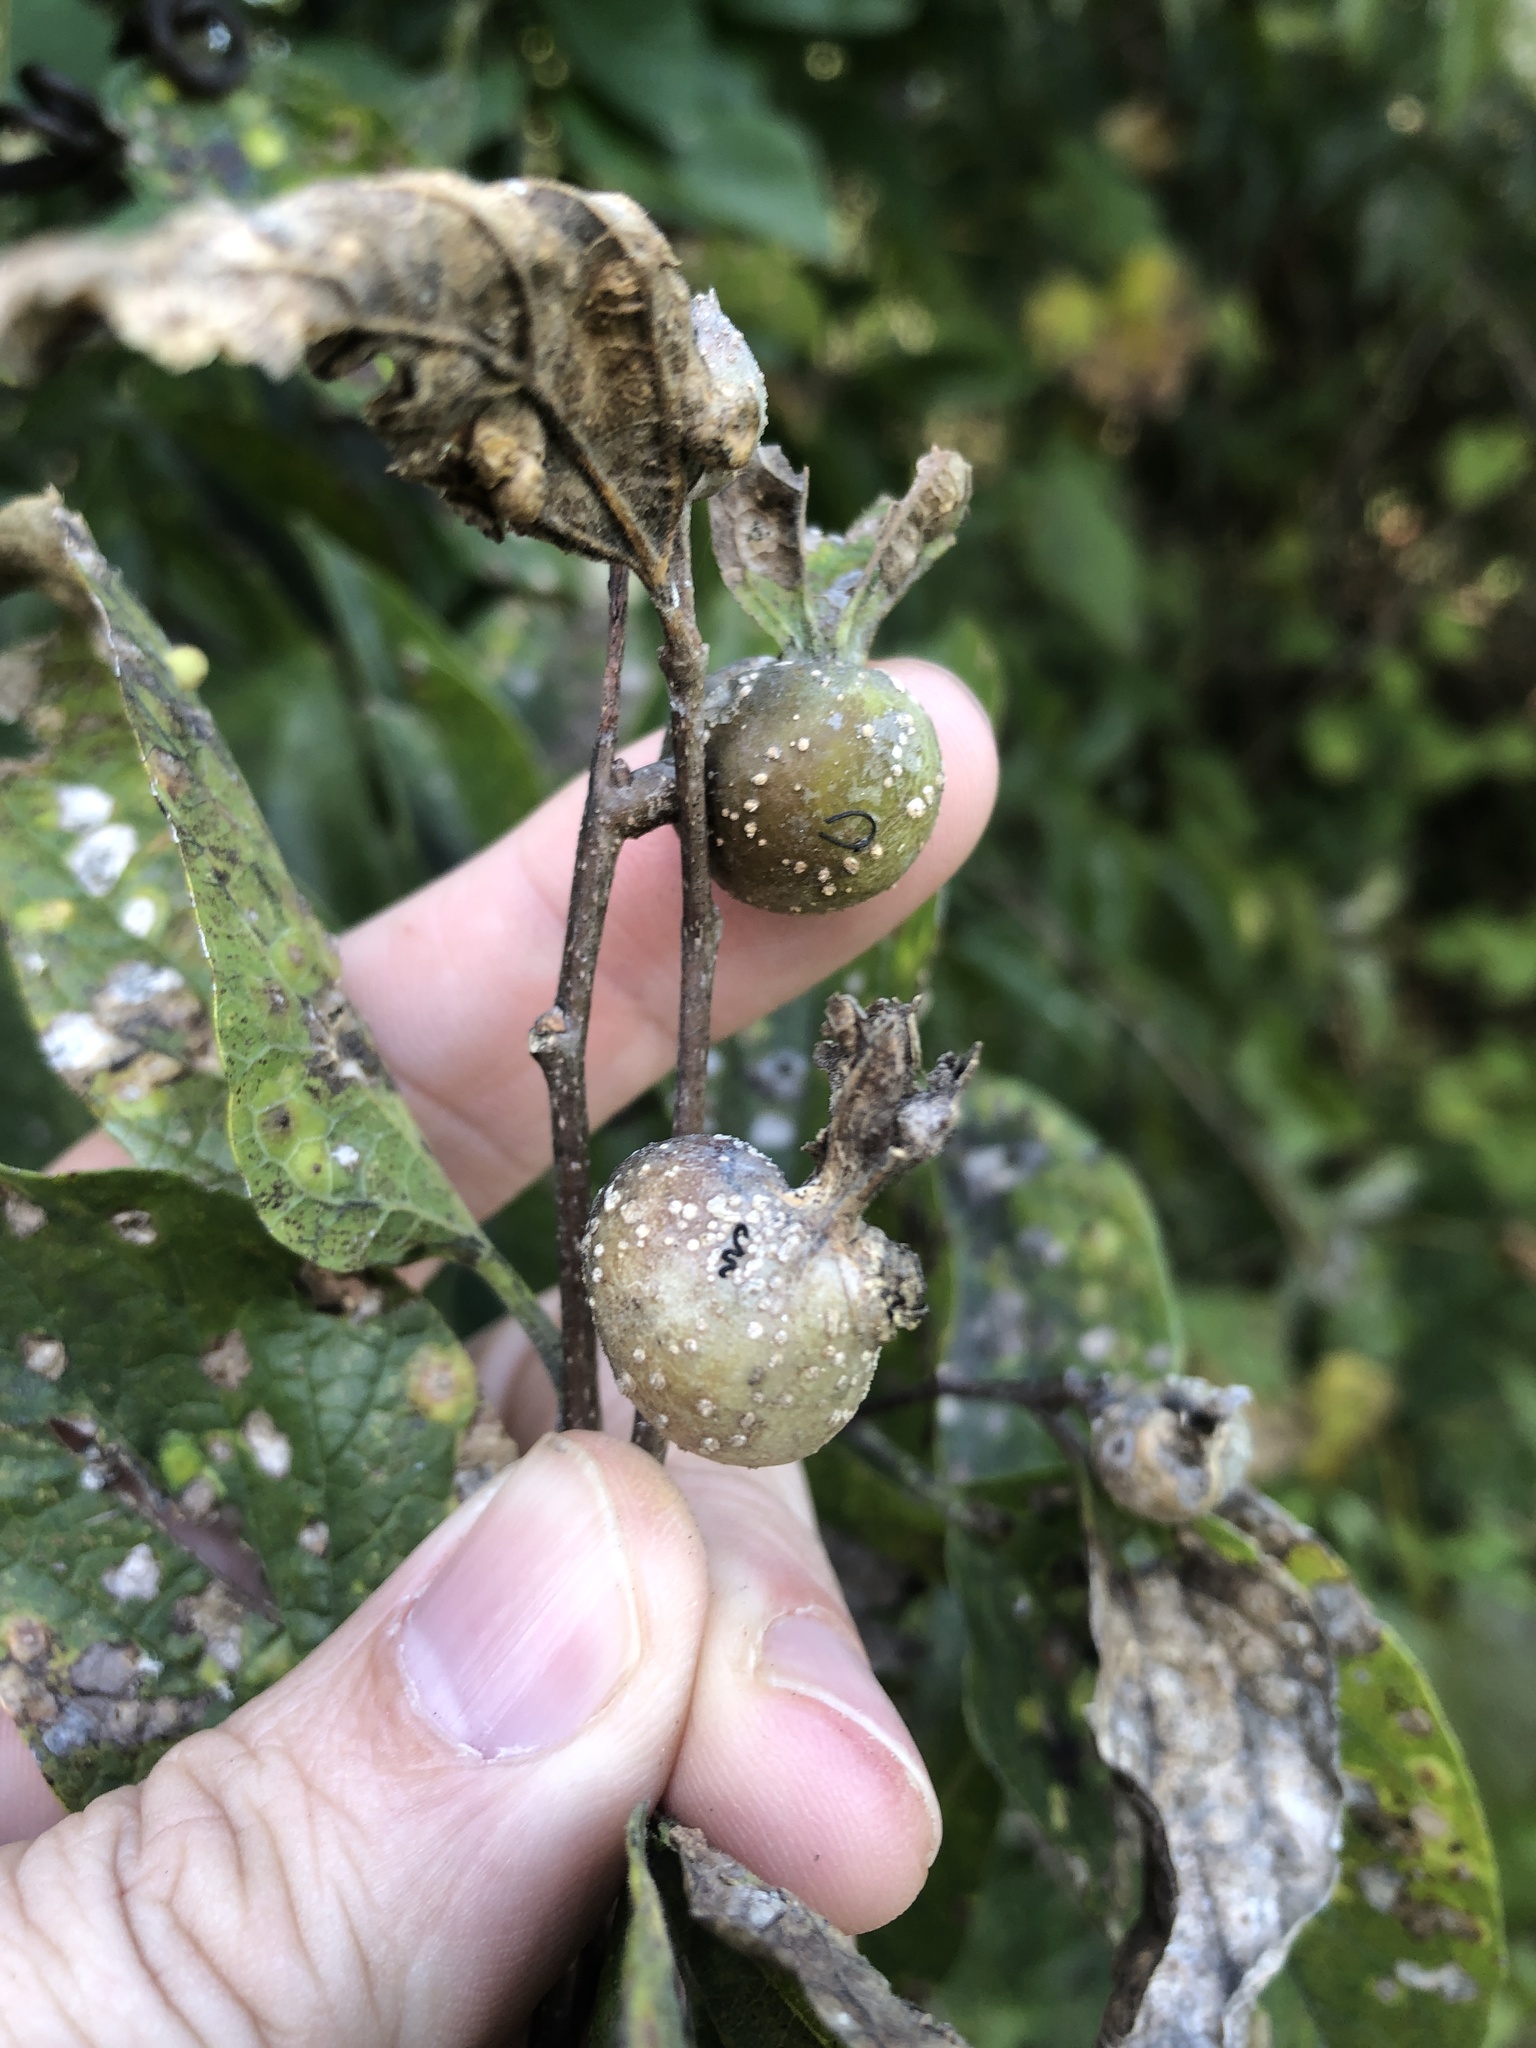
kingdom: Animalia
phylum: Arthropoda
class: Insecta
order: Hemiptera
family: Aphalaridae
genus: Pachypsylla
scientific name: Pachypsylla venusta
